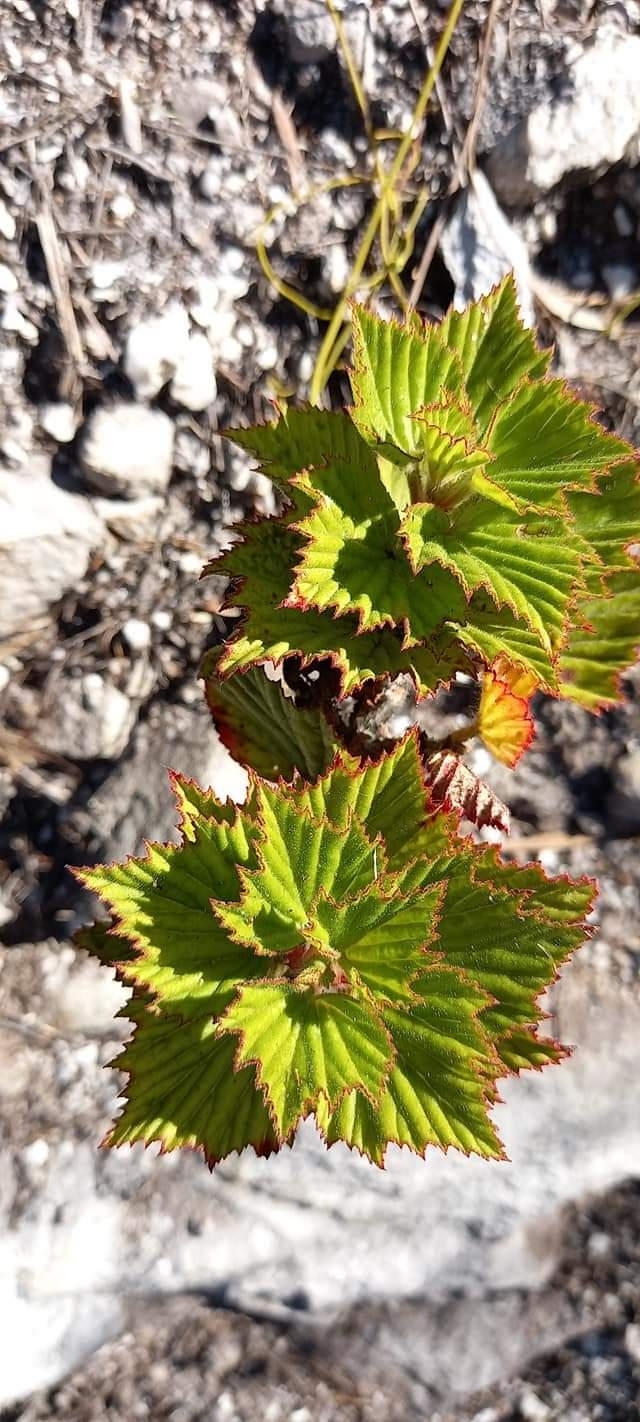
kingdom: Plantae
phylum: Tracheophyta
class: Magnoliopsida
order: Geraniales
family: Geraniaceae
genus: Pelargonium
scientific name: Pelargonium cucullatum
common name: Tree pelargonium
